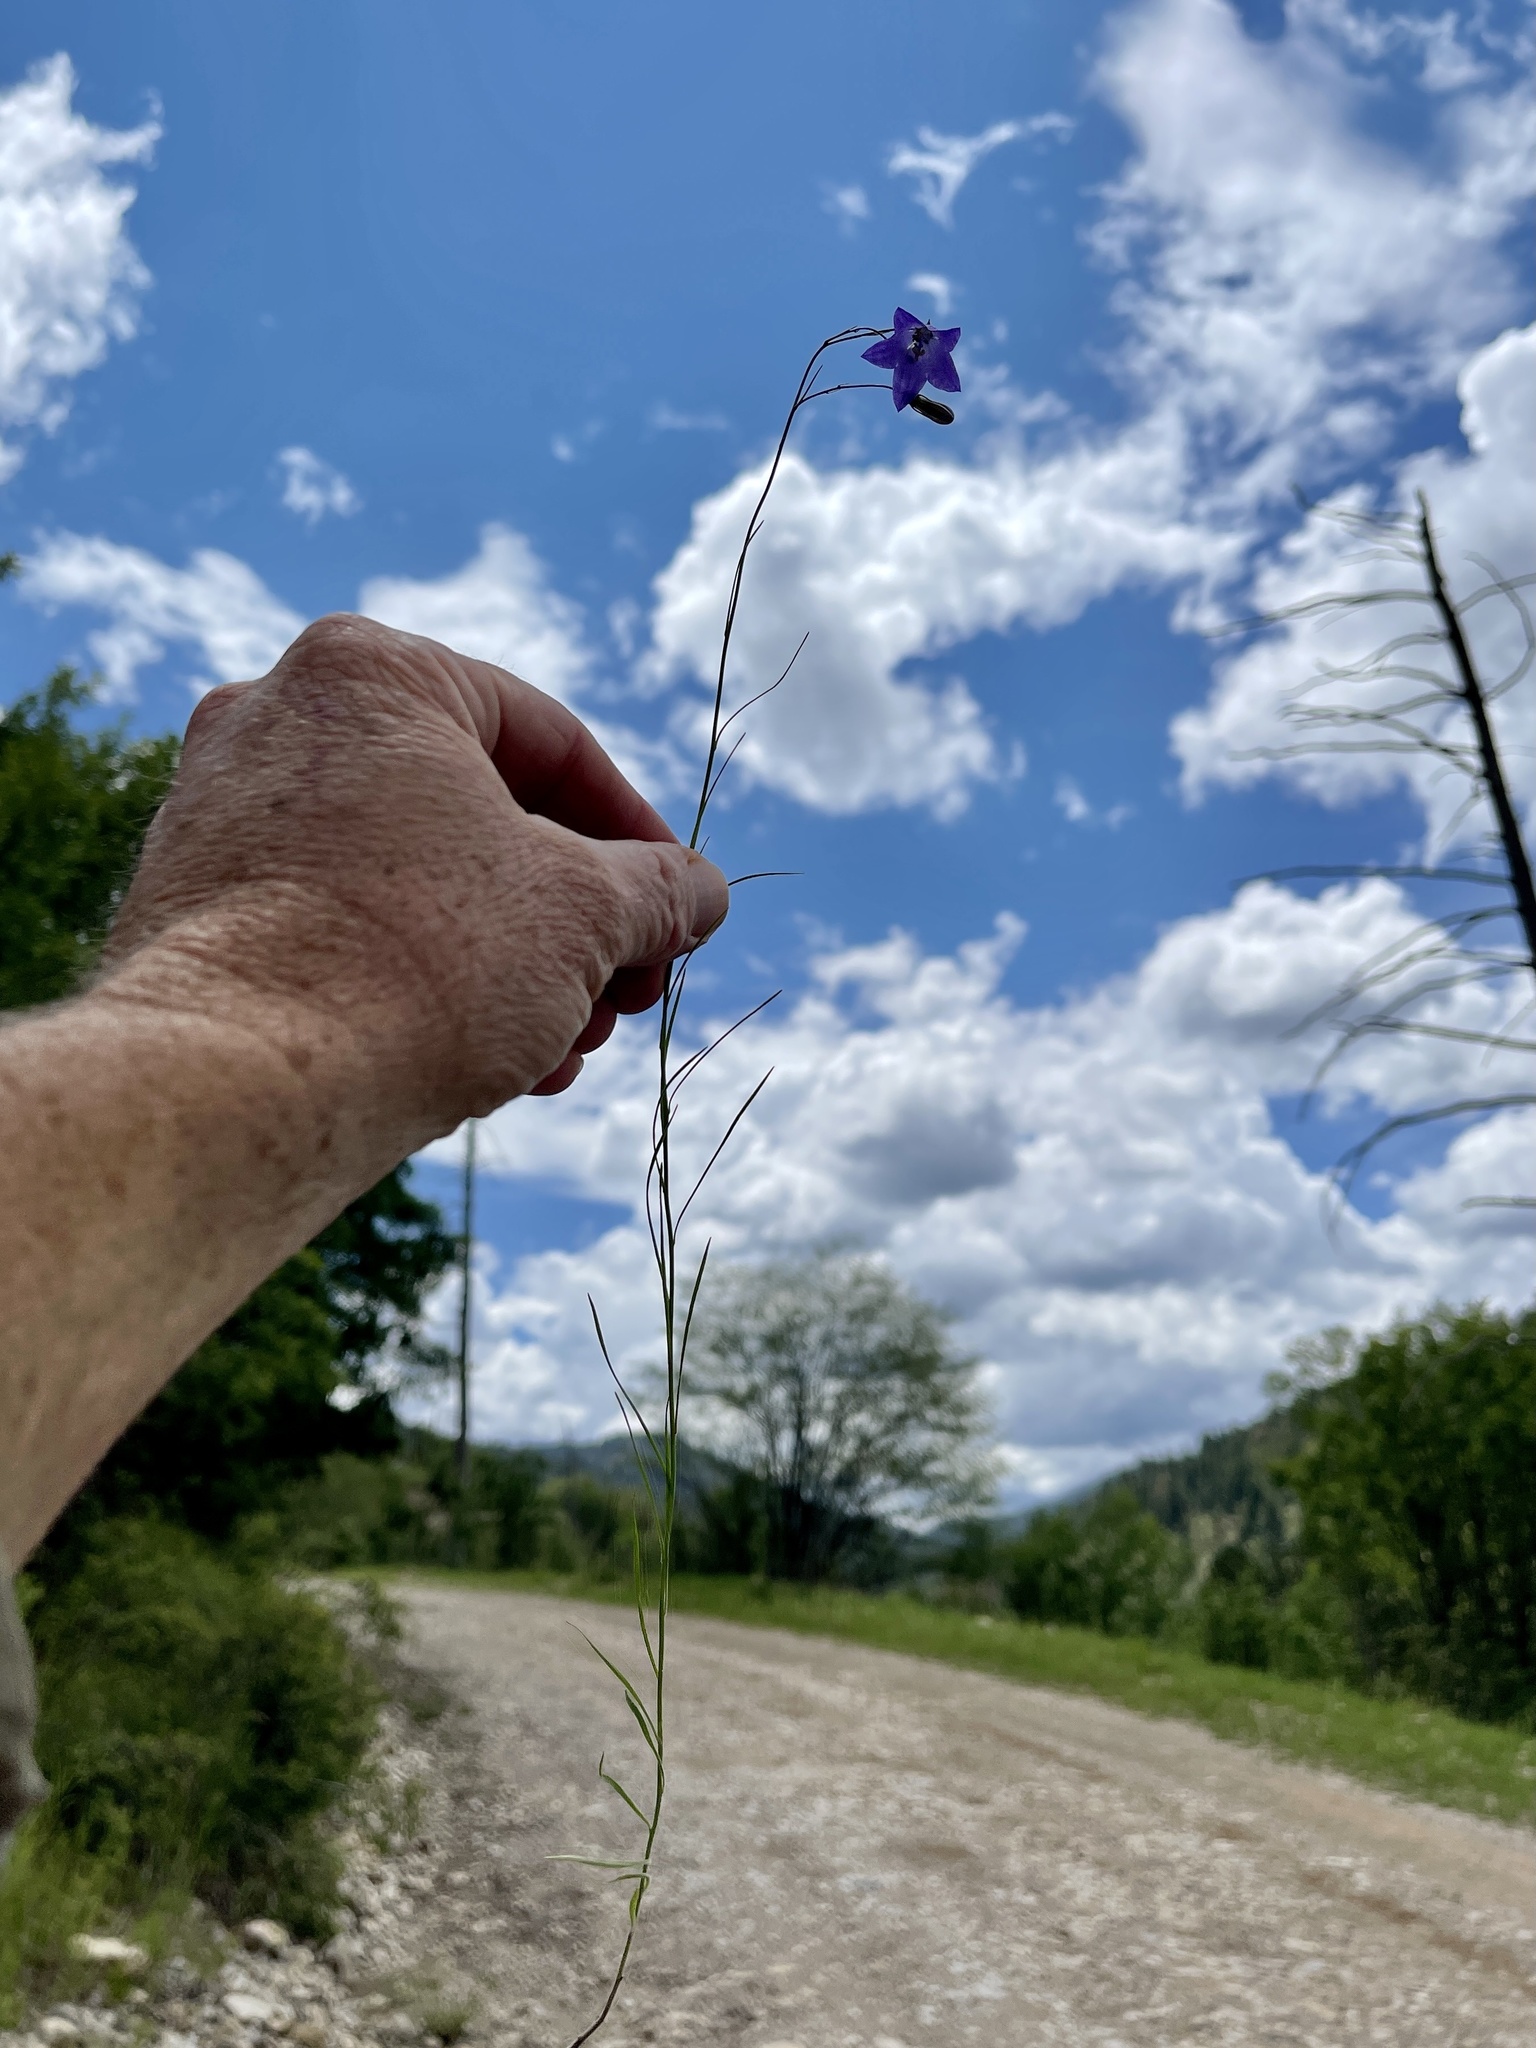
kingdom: Plantae
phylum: Tracheophyta
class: Magnoliopsida
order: Asterales
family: Campanulaceae
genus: Campanula
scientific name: Campanula petiolata
